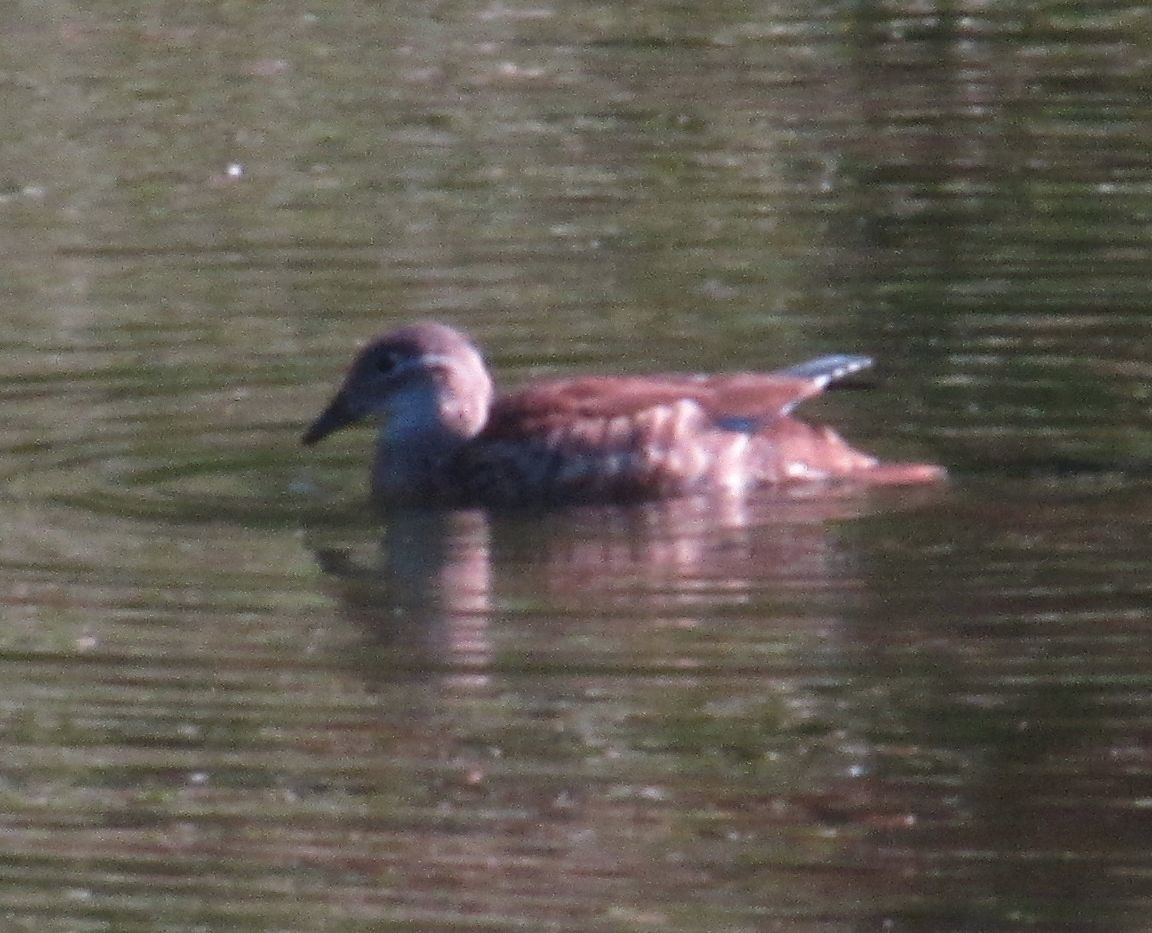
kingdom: Animalia
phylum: Chordata
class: Aves
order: Anseriformes
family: Anatidae
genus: Aix
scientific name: Aix galericulata
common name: Mandarin duck
